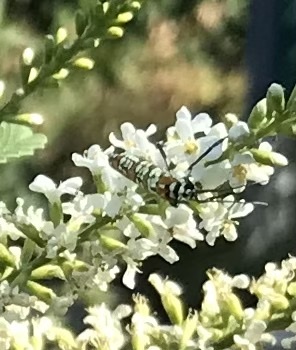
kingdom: Animalia
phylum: Arthropoda
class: Insecta
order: Lepidoptera
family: Attevidae
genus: Atteva
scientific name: Atteva punctella
